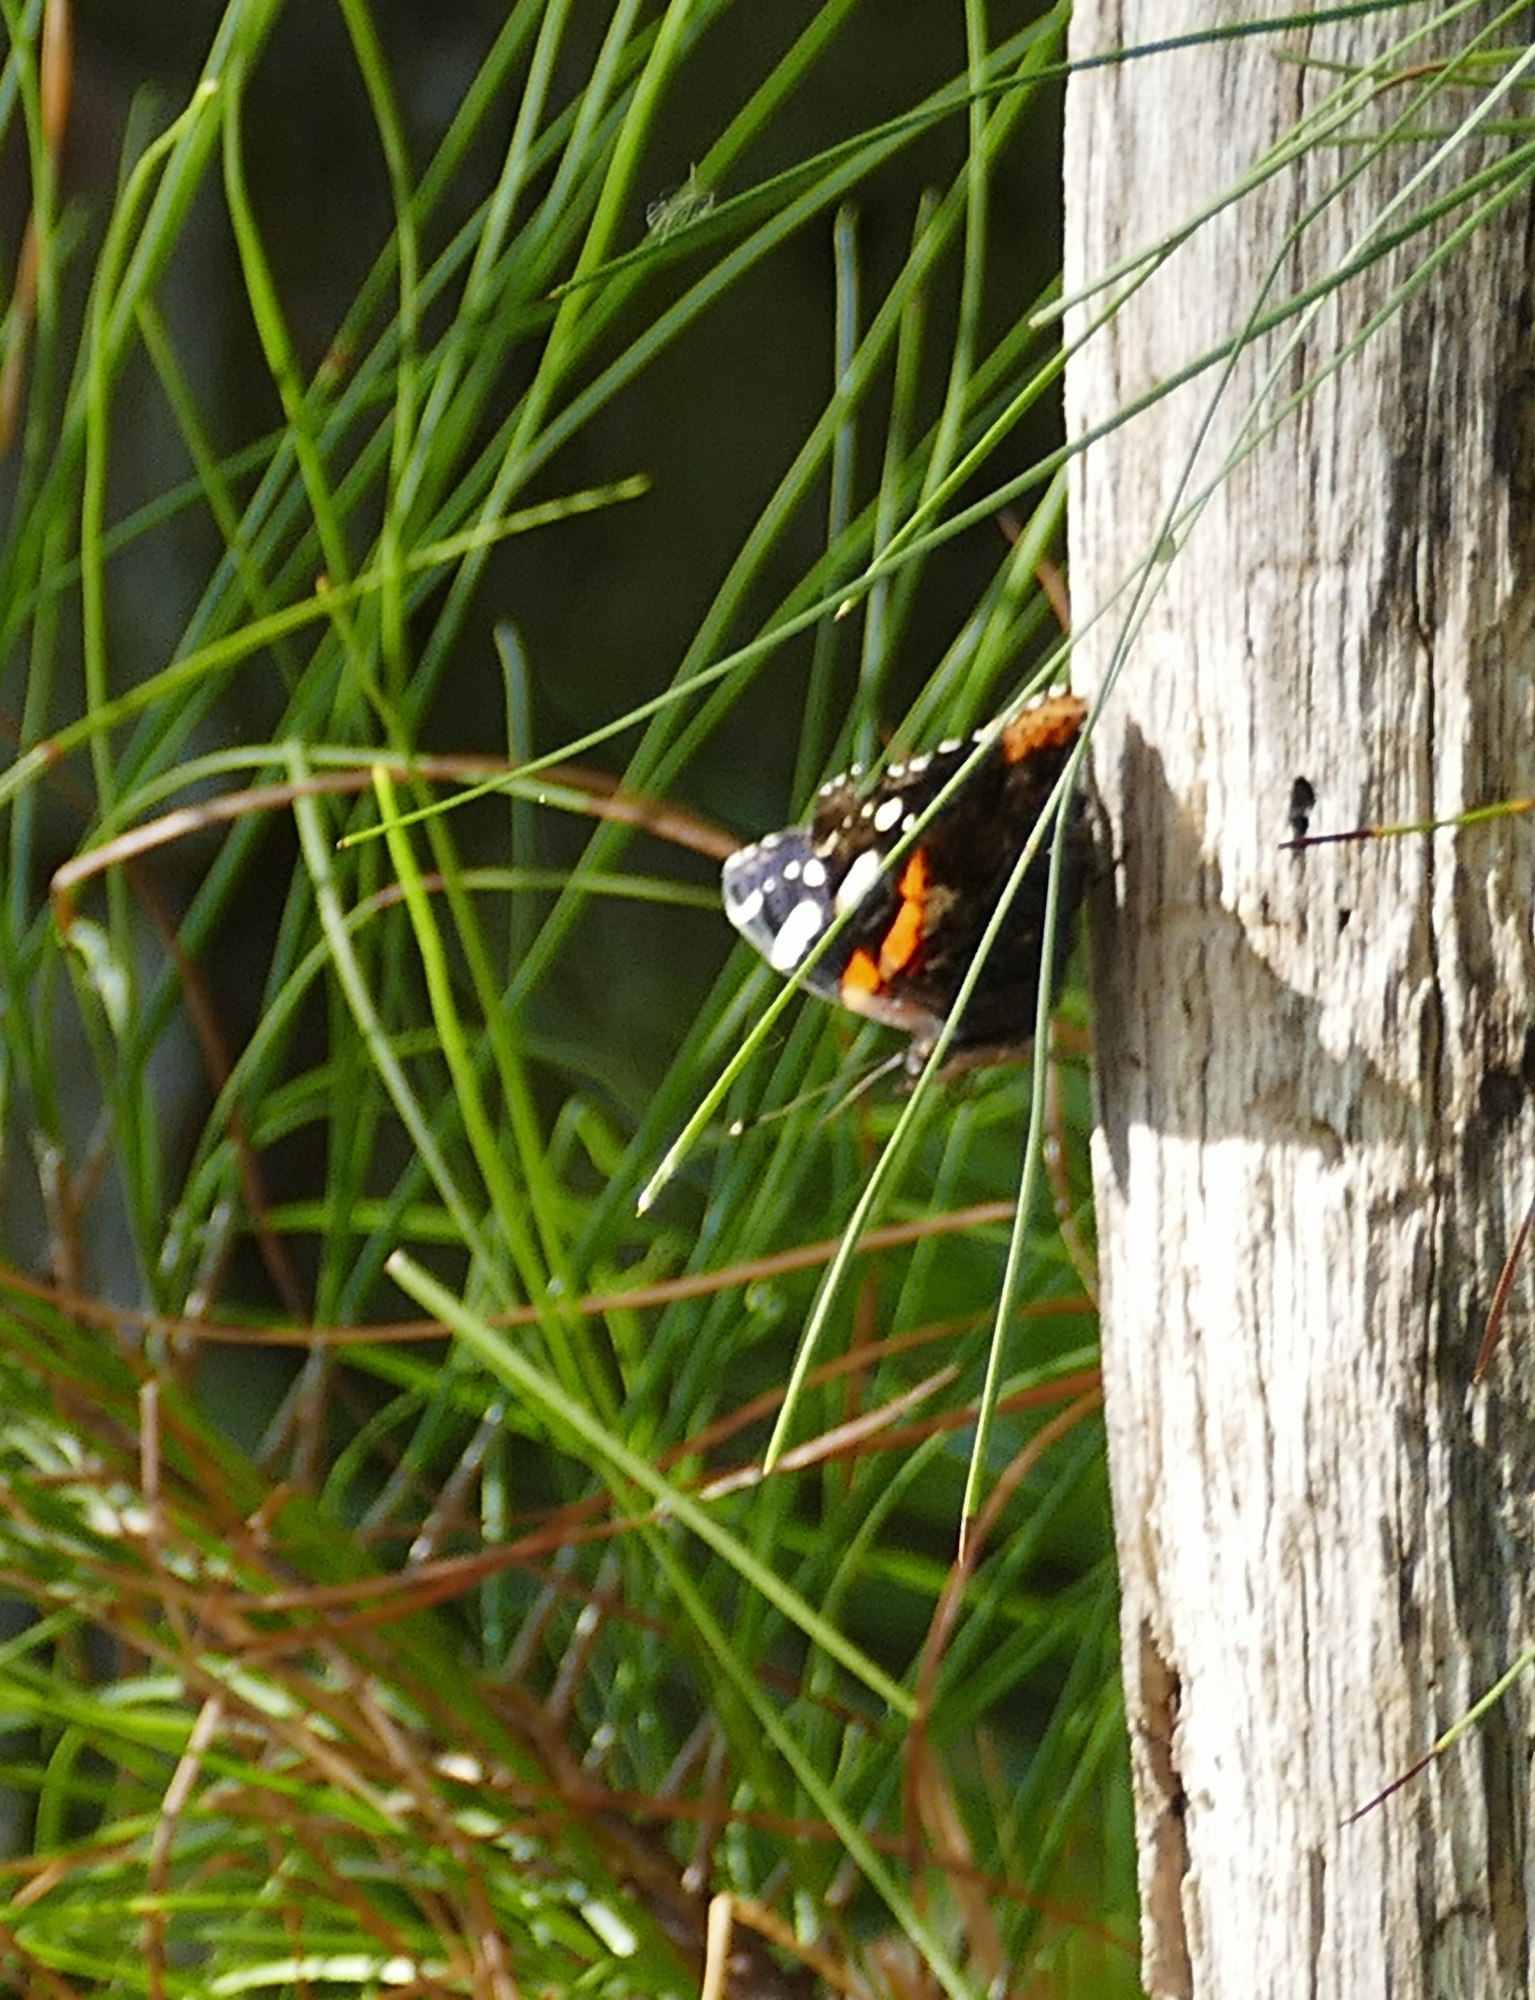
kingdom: Animalia
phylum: Arthropoda
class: Insecta
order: Lepidoptera
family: Nymphalidae
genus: Vanessa
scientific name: Vanessa atalanta
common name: Red admiral
